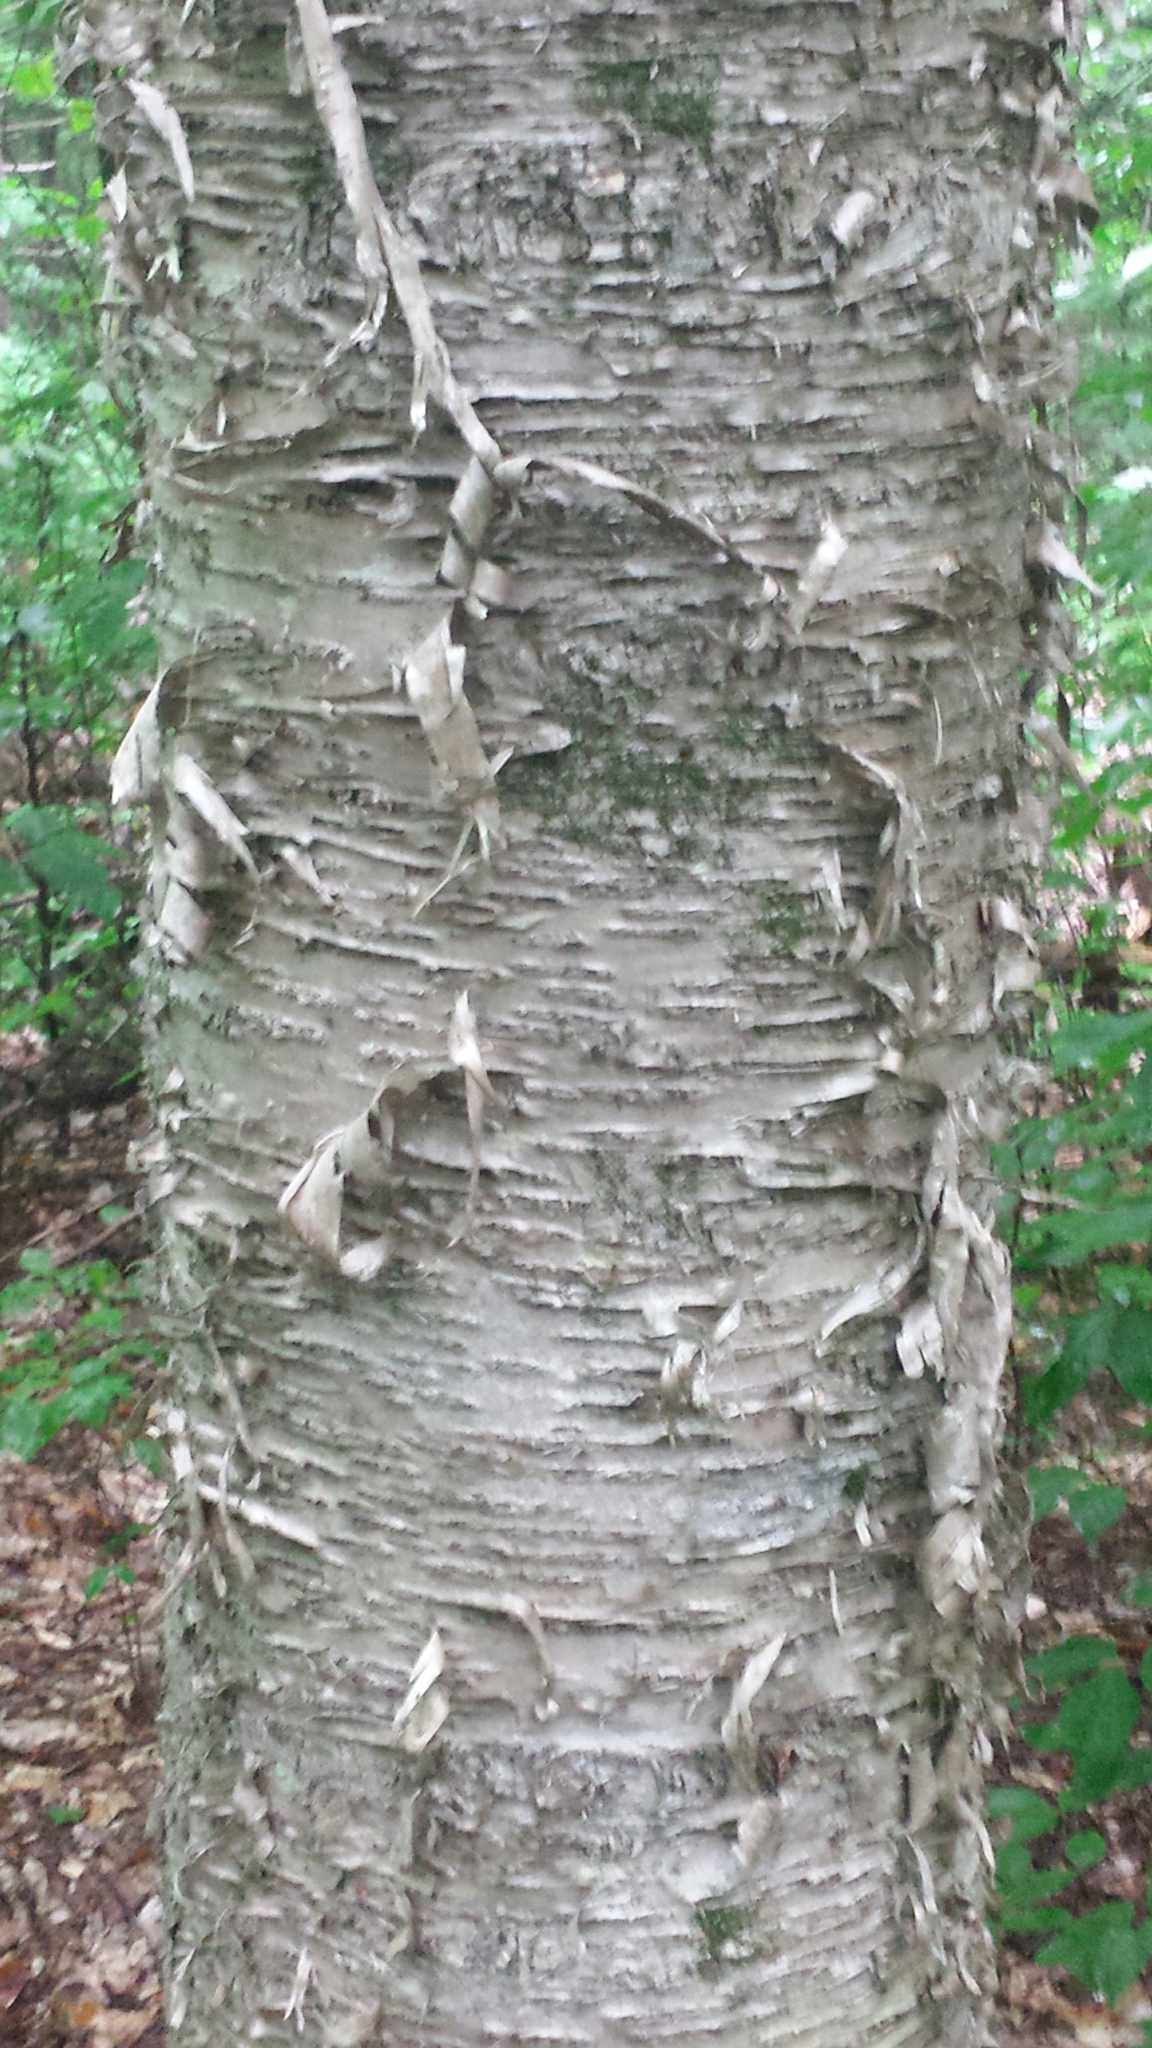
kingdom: Plantae
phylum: Tracheophyta
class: Magnoliopsida
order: Fagales
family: Betulaceae
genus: Betula
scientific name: Betula alleghaniensis
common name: Yellow birch
